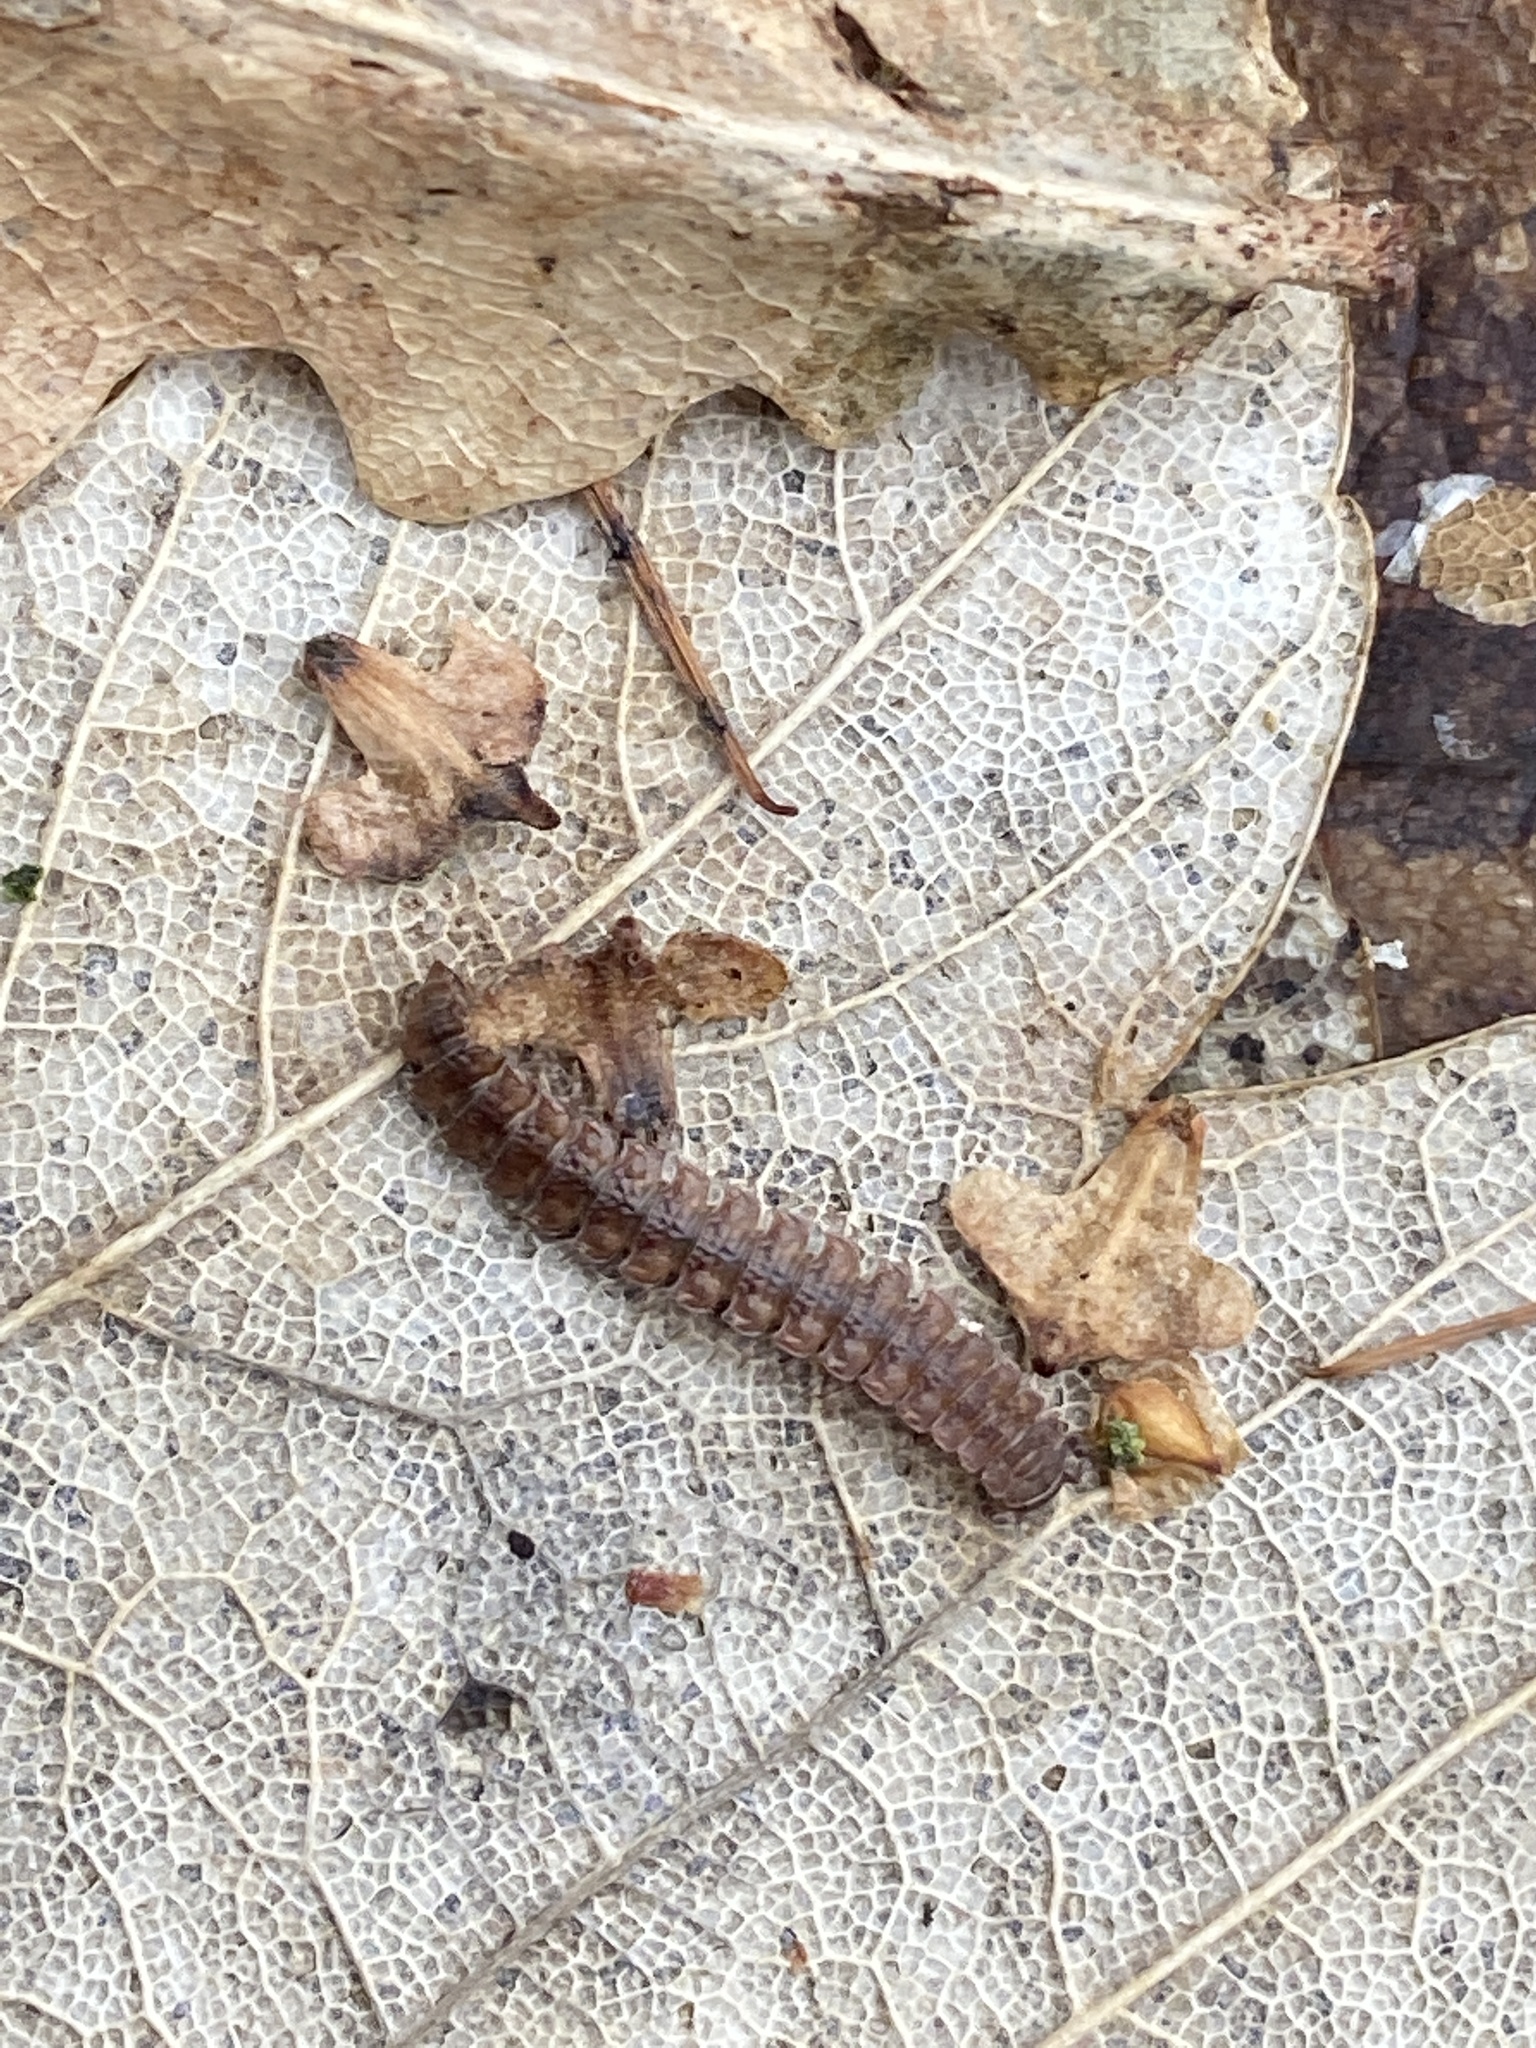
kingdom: Animalia
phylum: Arthropoda
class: Diplopoda
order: Polydesmida
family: Polydesmidae
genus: Polydesmus
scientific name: Polydesmus angustus
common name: Flat millipede
